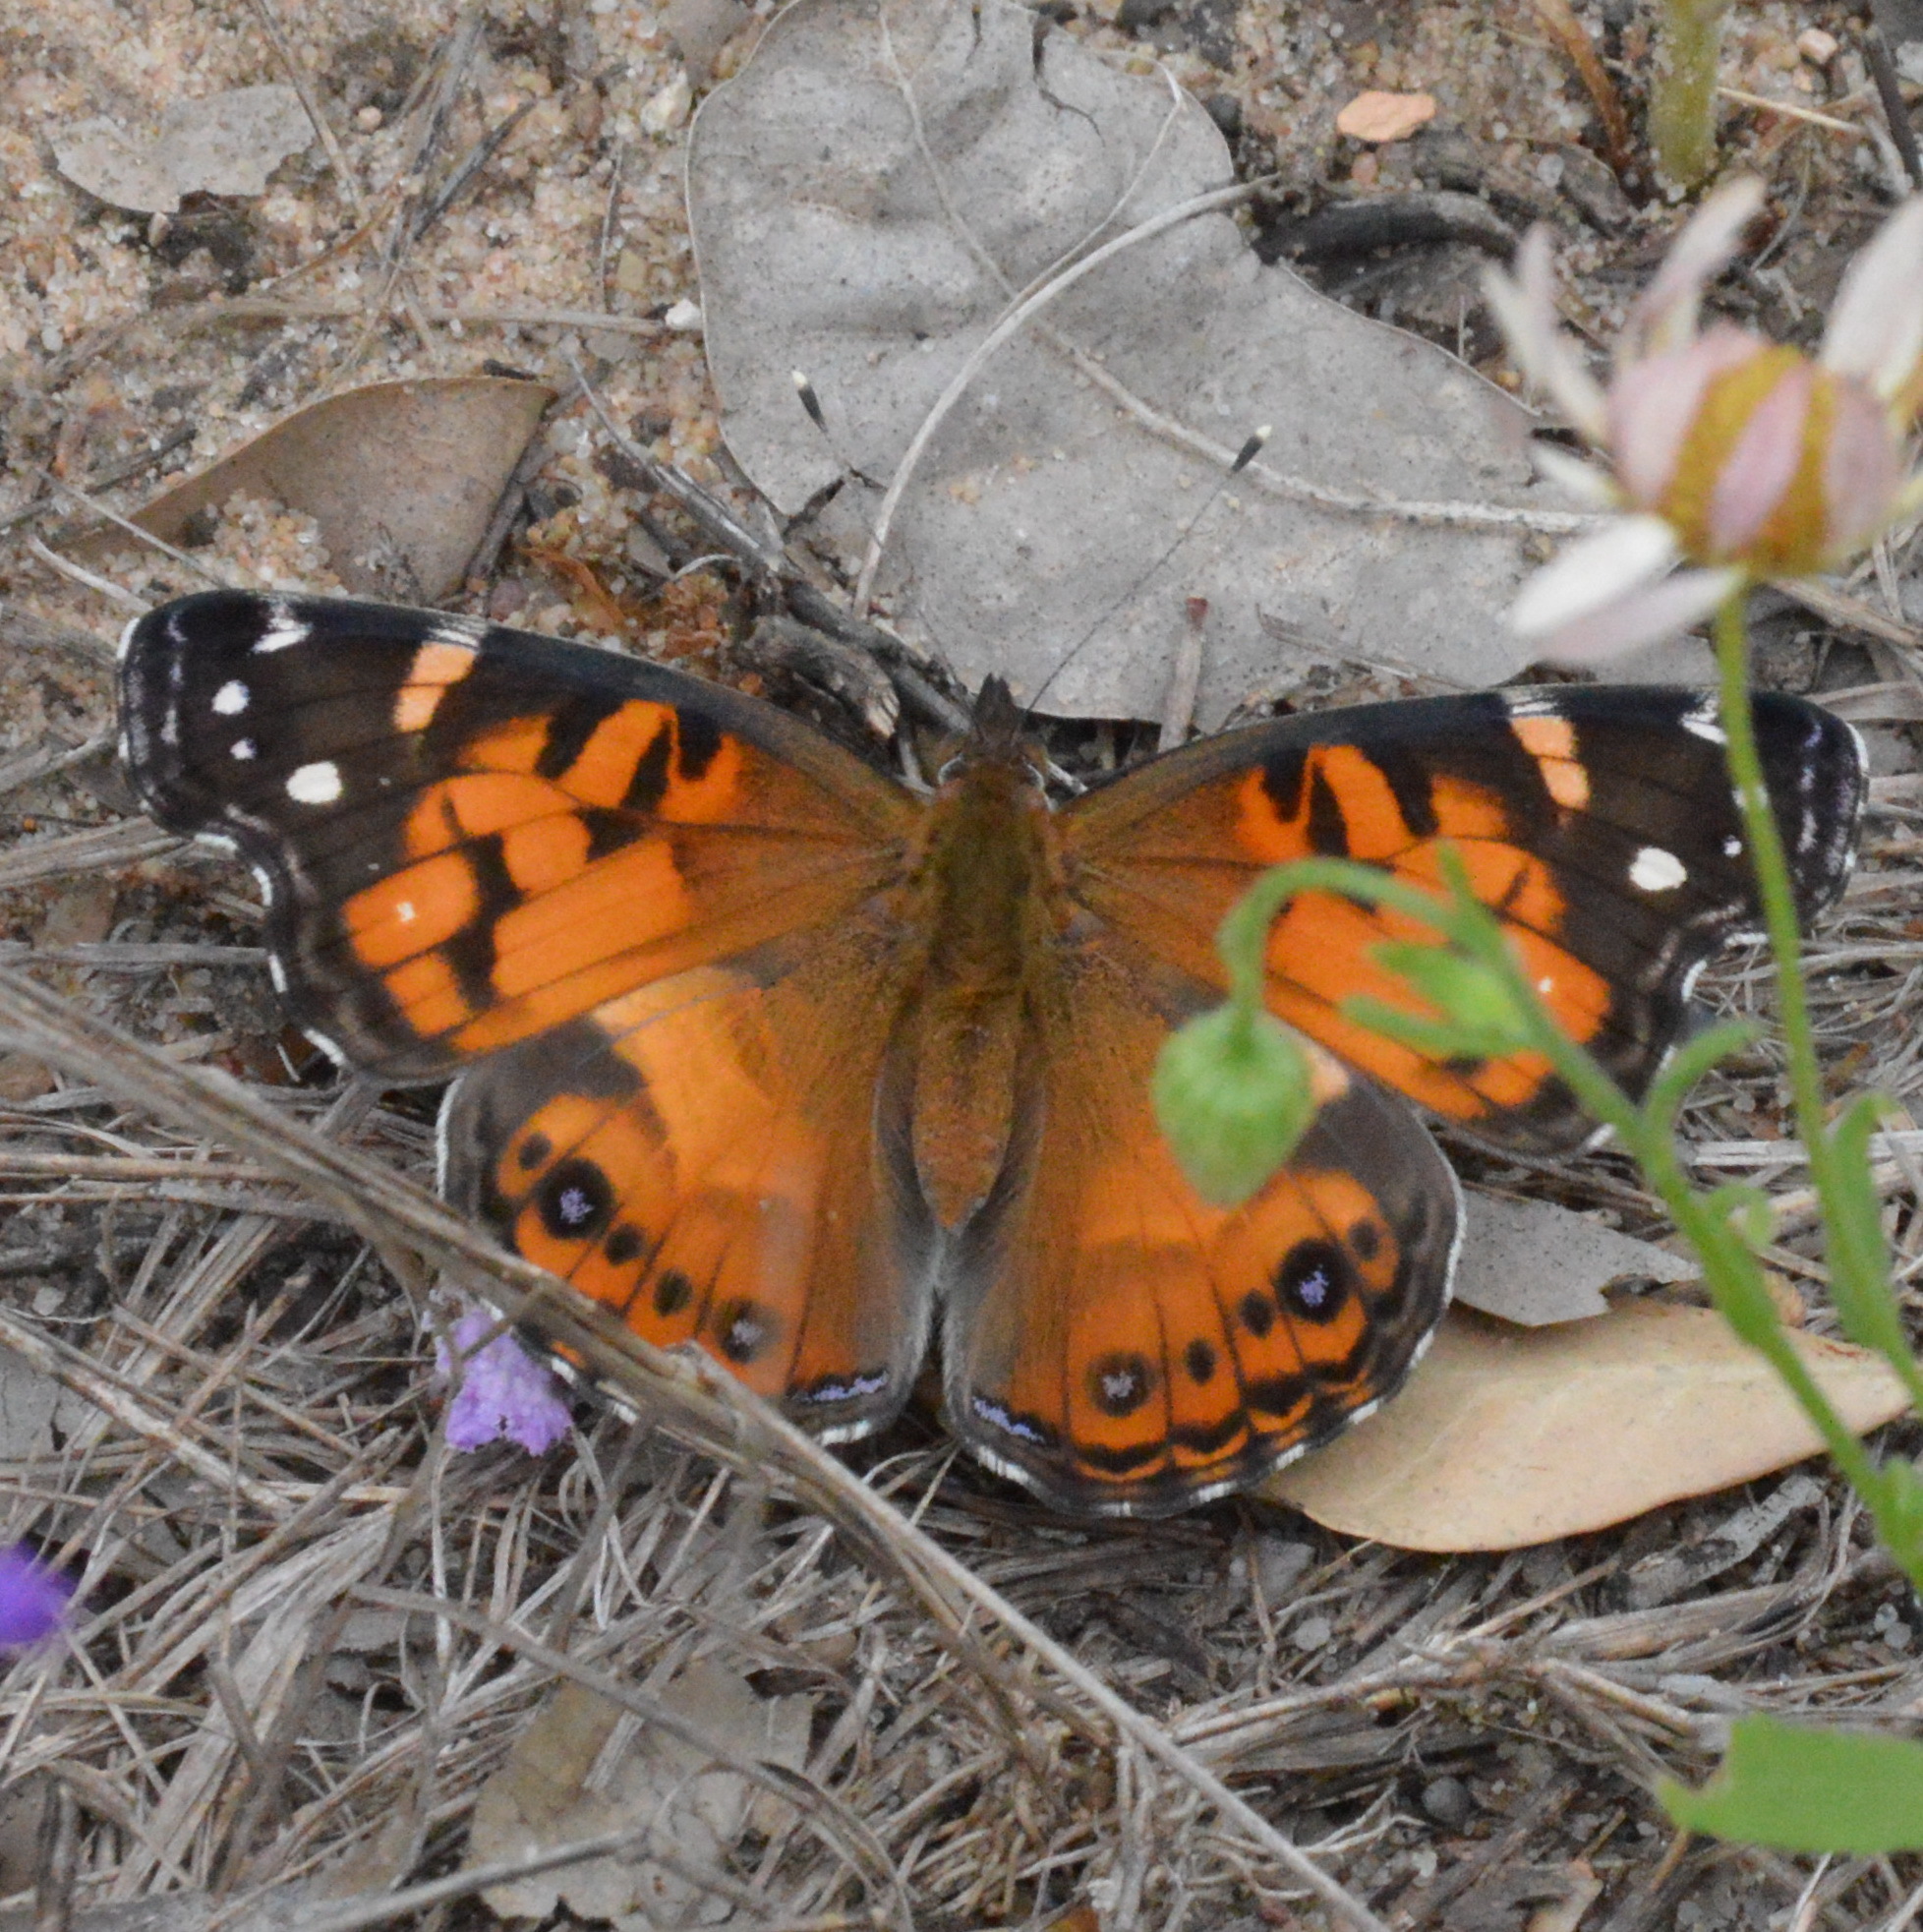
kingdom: Animalia
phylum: Arthropoda
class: Insecta
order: Lepidoptera
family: Nymphalidae
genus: Vanessa
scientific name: Vanessa virginiensis
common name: American lady
